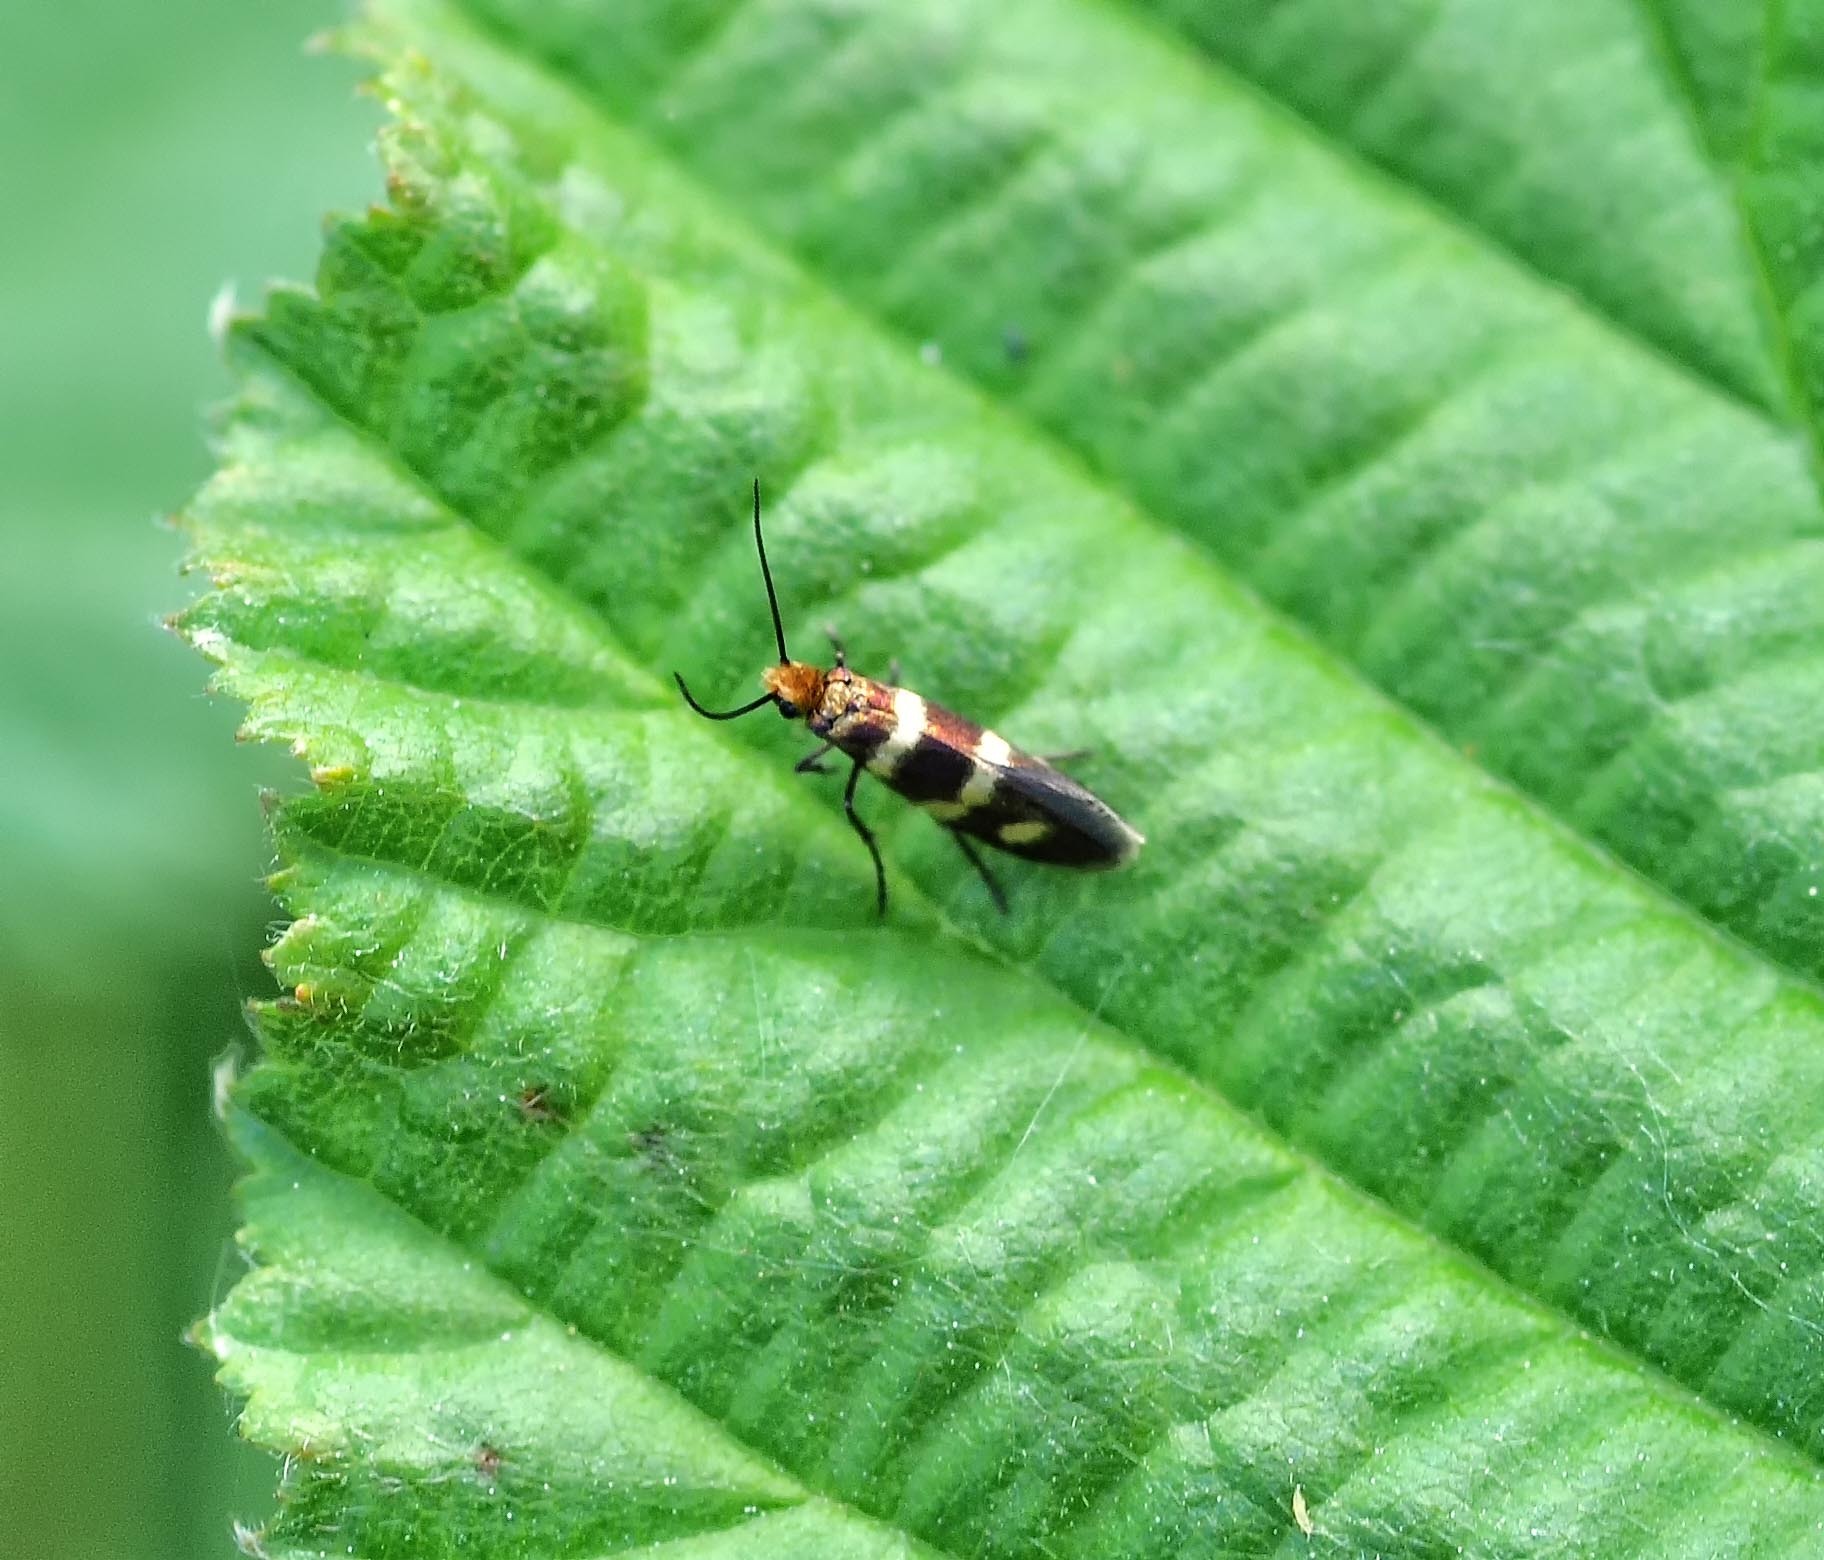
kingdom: Animalia
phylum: Arthropoda
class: Insecta
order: Lepidoptera
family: Micropterigidae
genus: Micropterix
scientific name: Micropterix aureatella
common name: Yellow-barred gold
